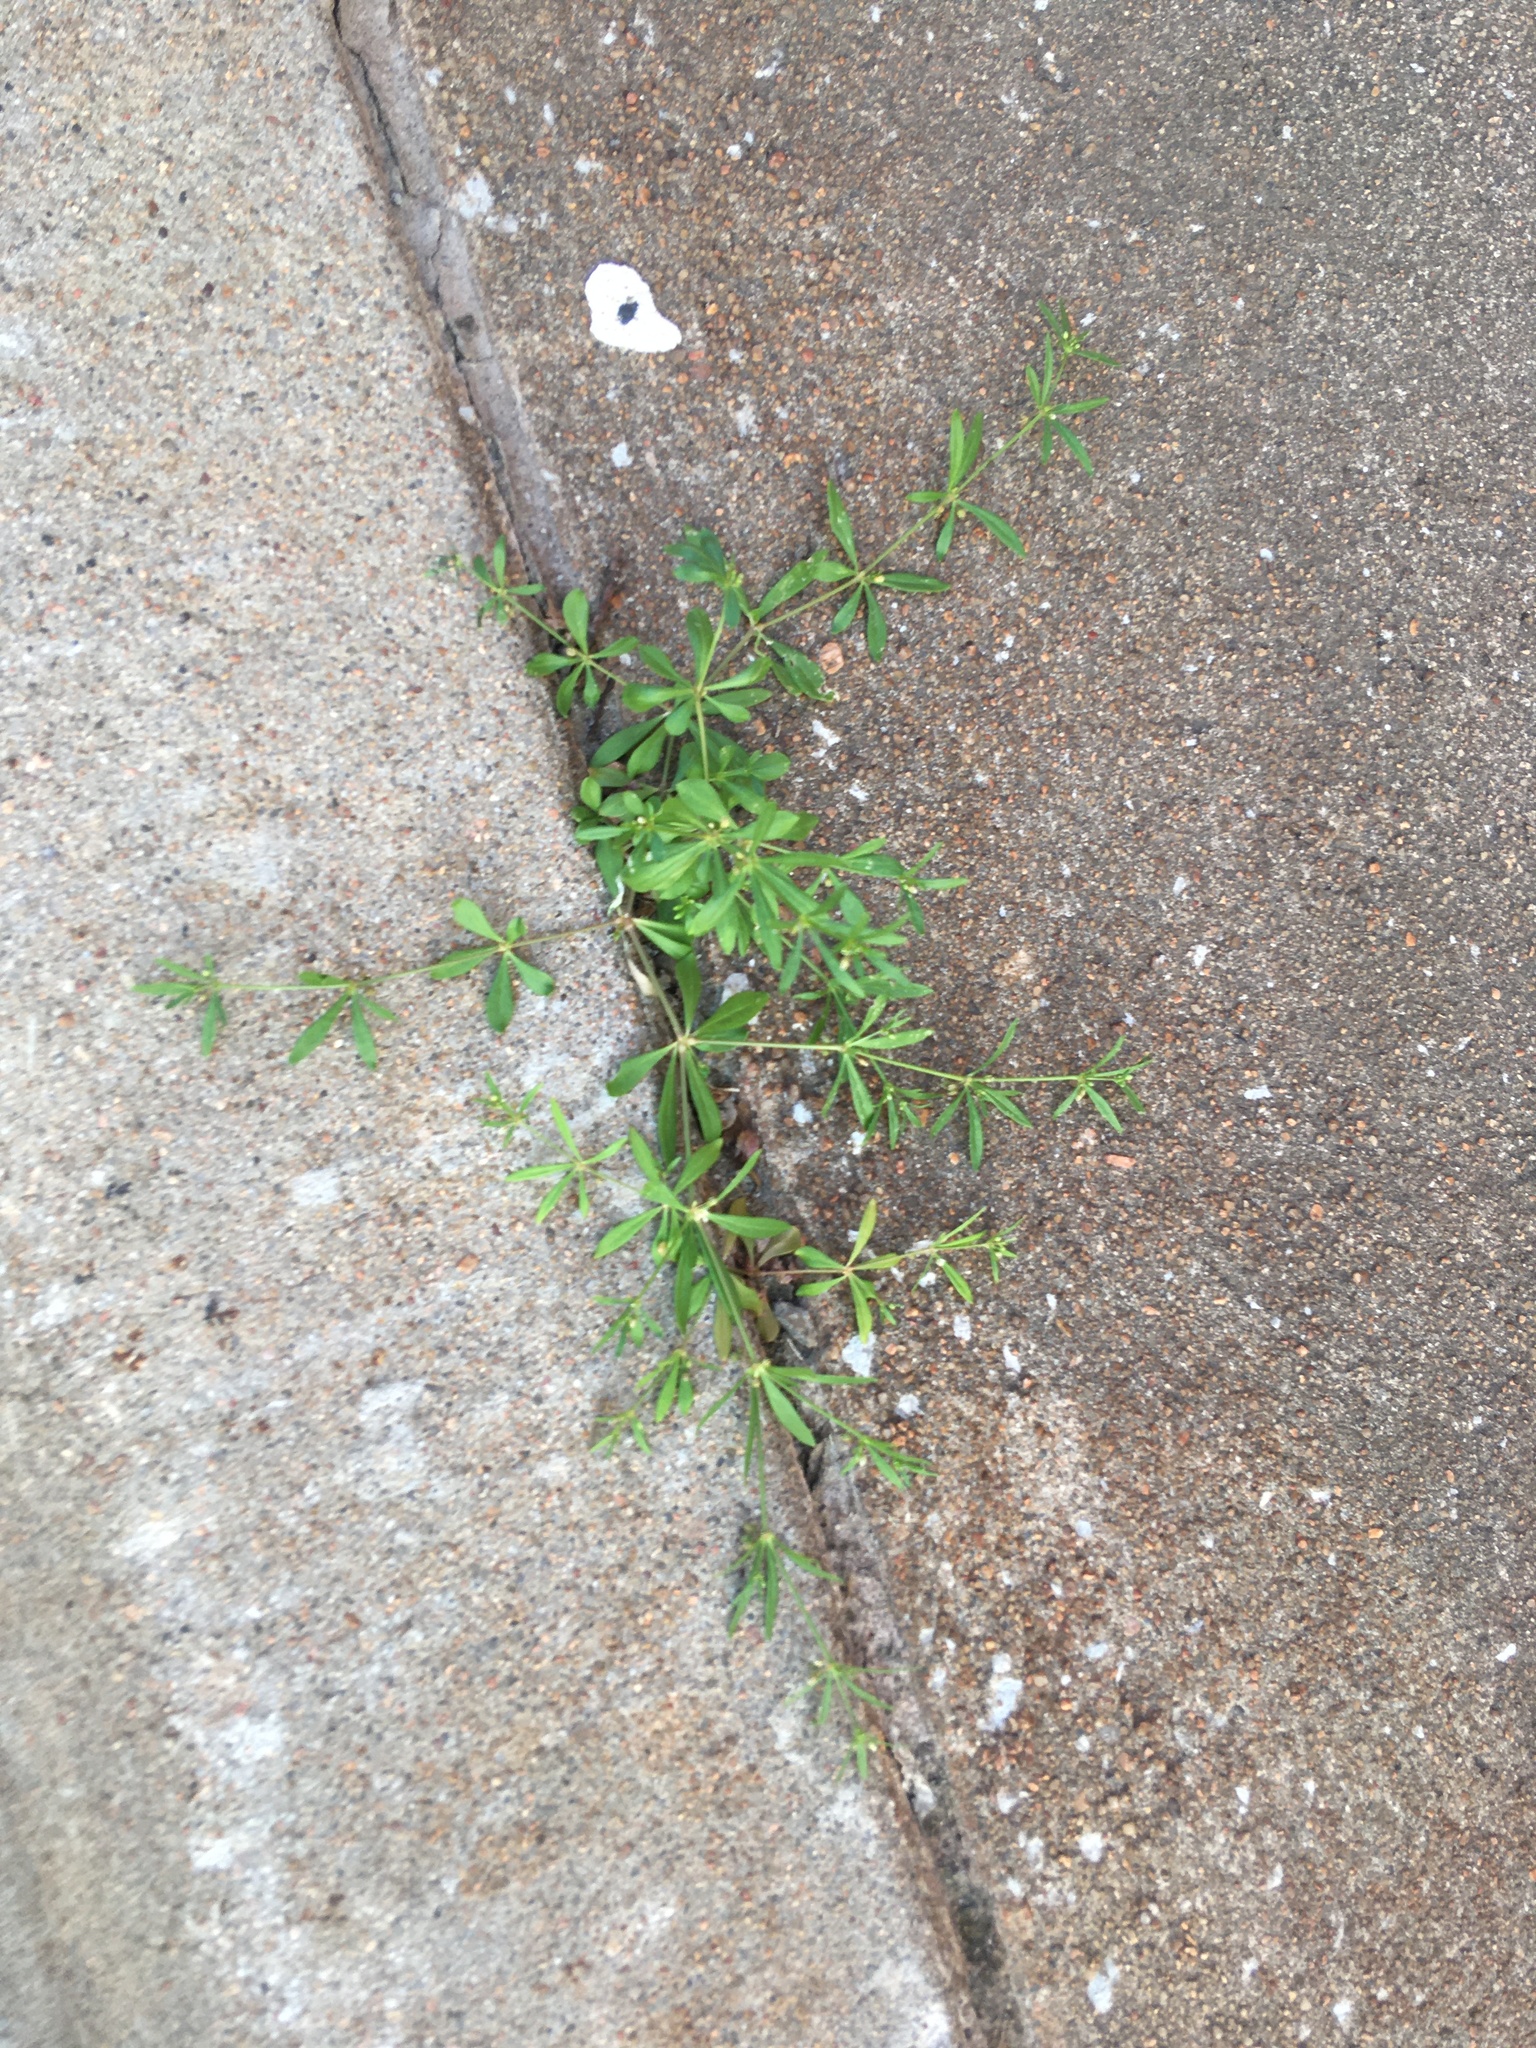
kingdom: Plantae
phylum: Tracheophyta
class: Magnoliopsida
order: Caryophyllales
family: Molluginaceae
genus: Mollugo
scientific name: Mollugo verticillata
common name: Green carpetweed
